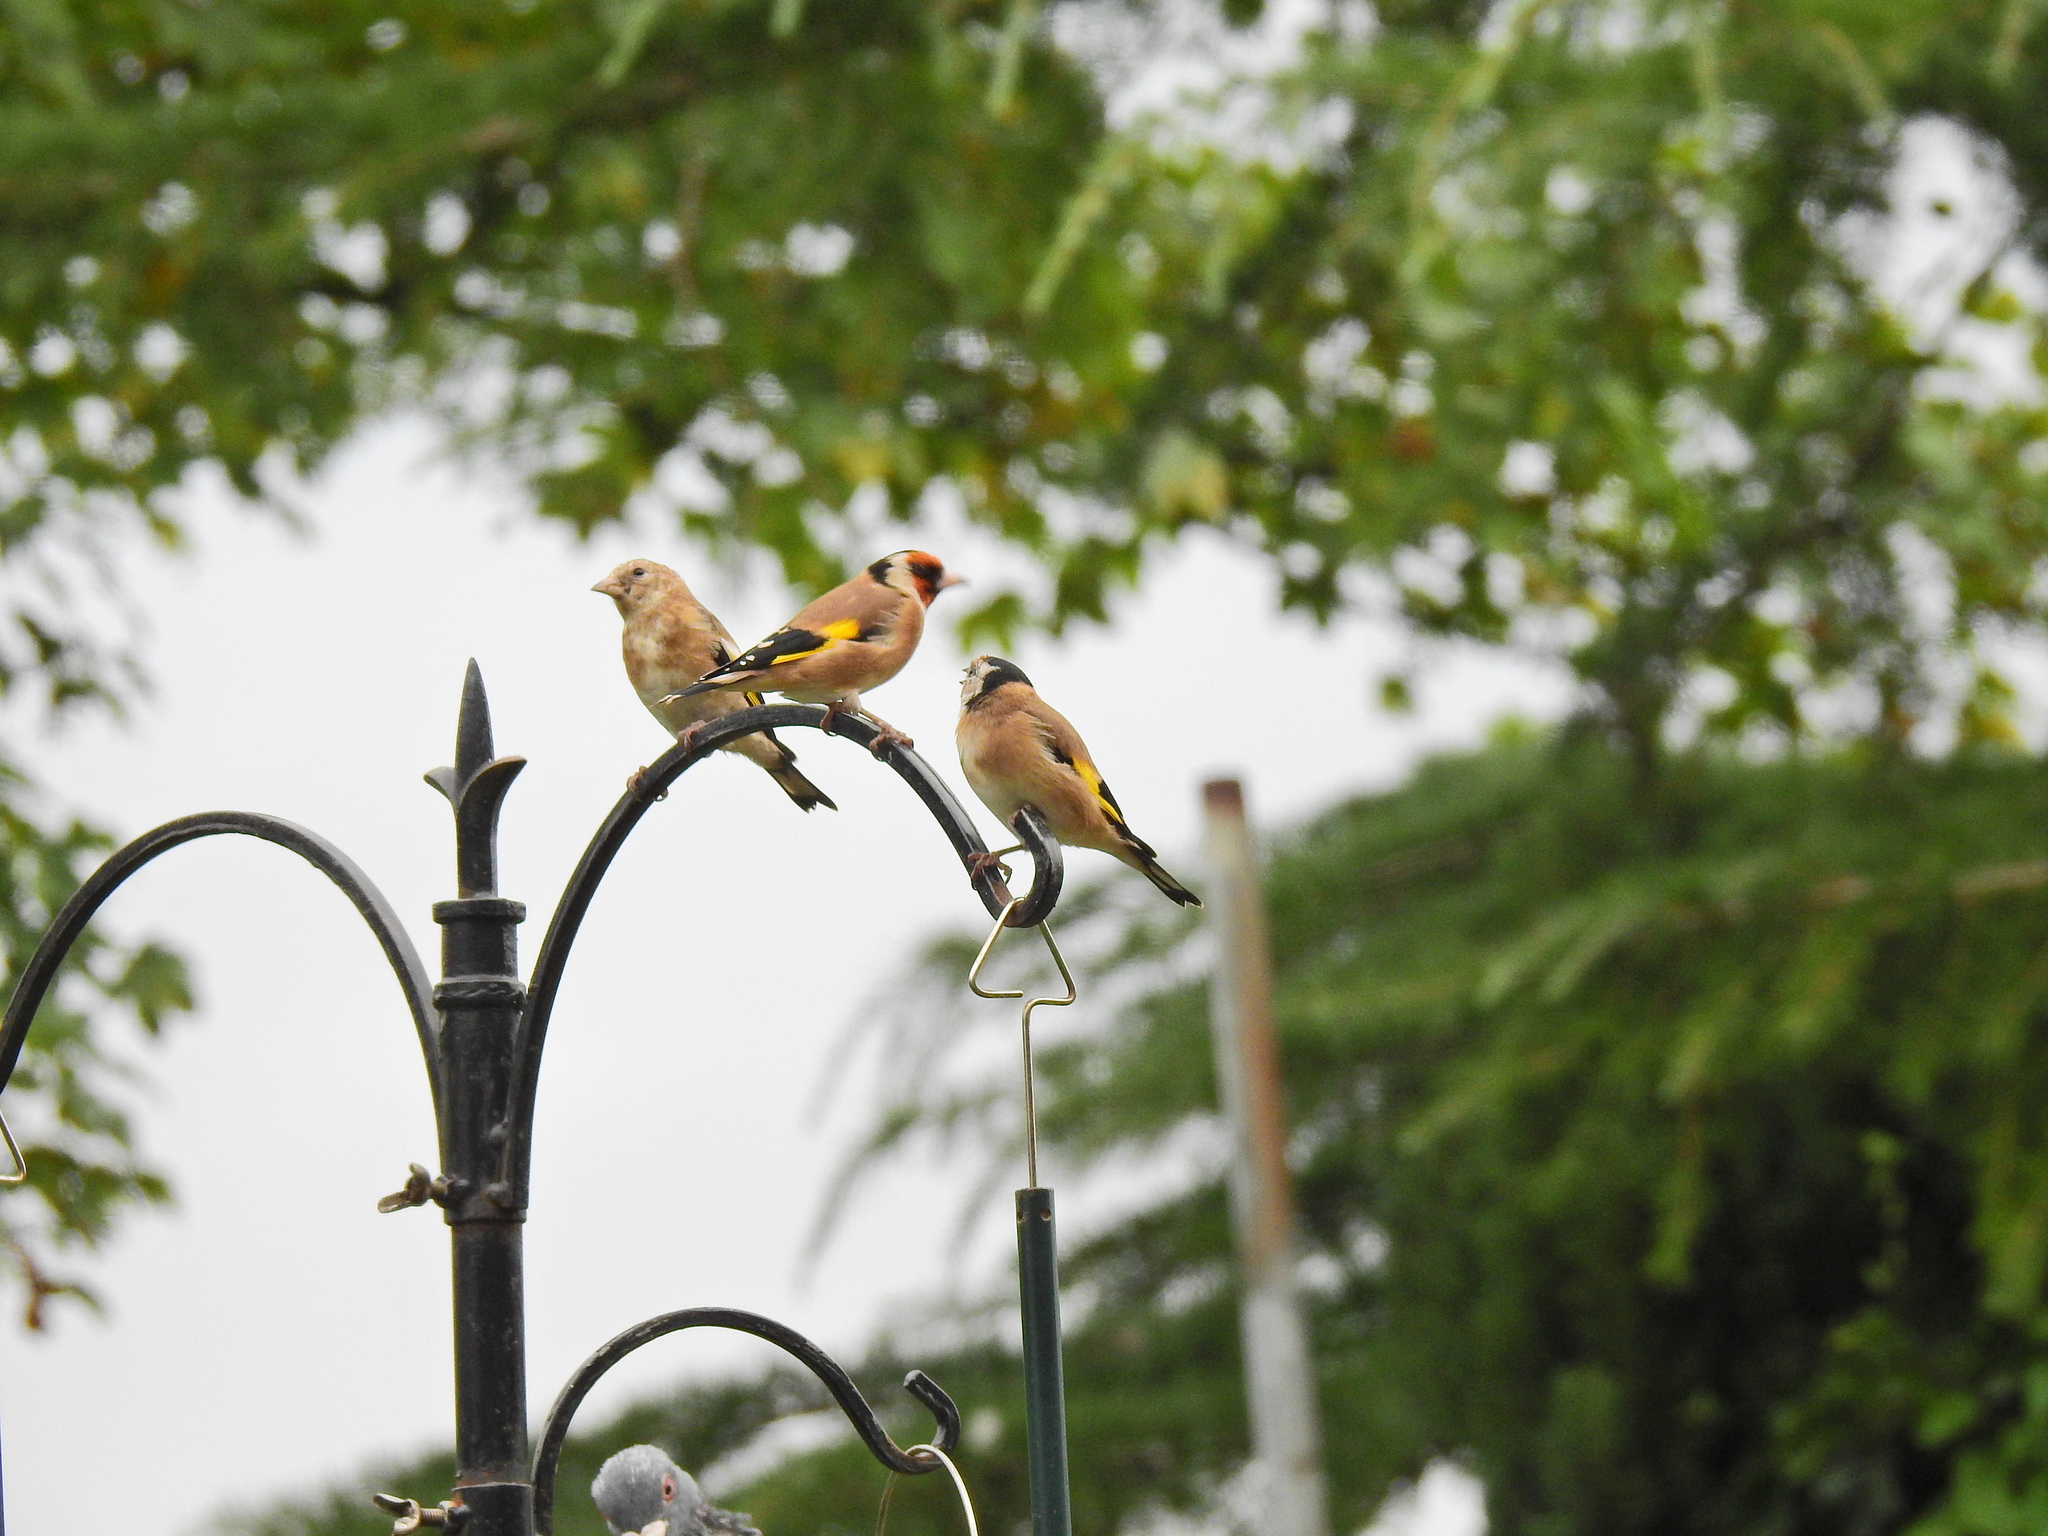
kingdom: Animalia
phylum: Chordata
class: Aves
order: Passeriformes
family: Fringillidae
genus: Carduelis
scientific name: Carduelis carduelis
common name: European goldfinch
